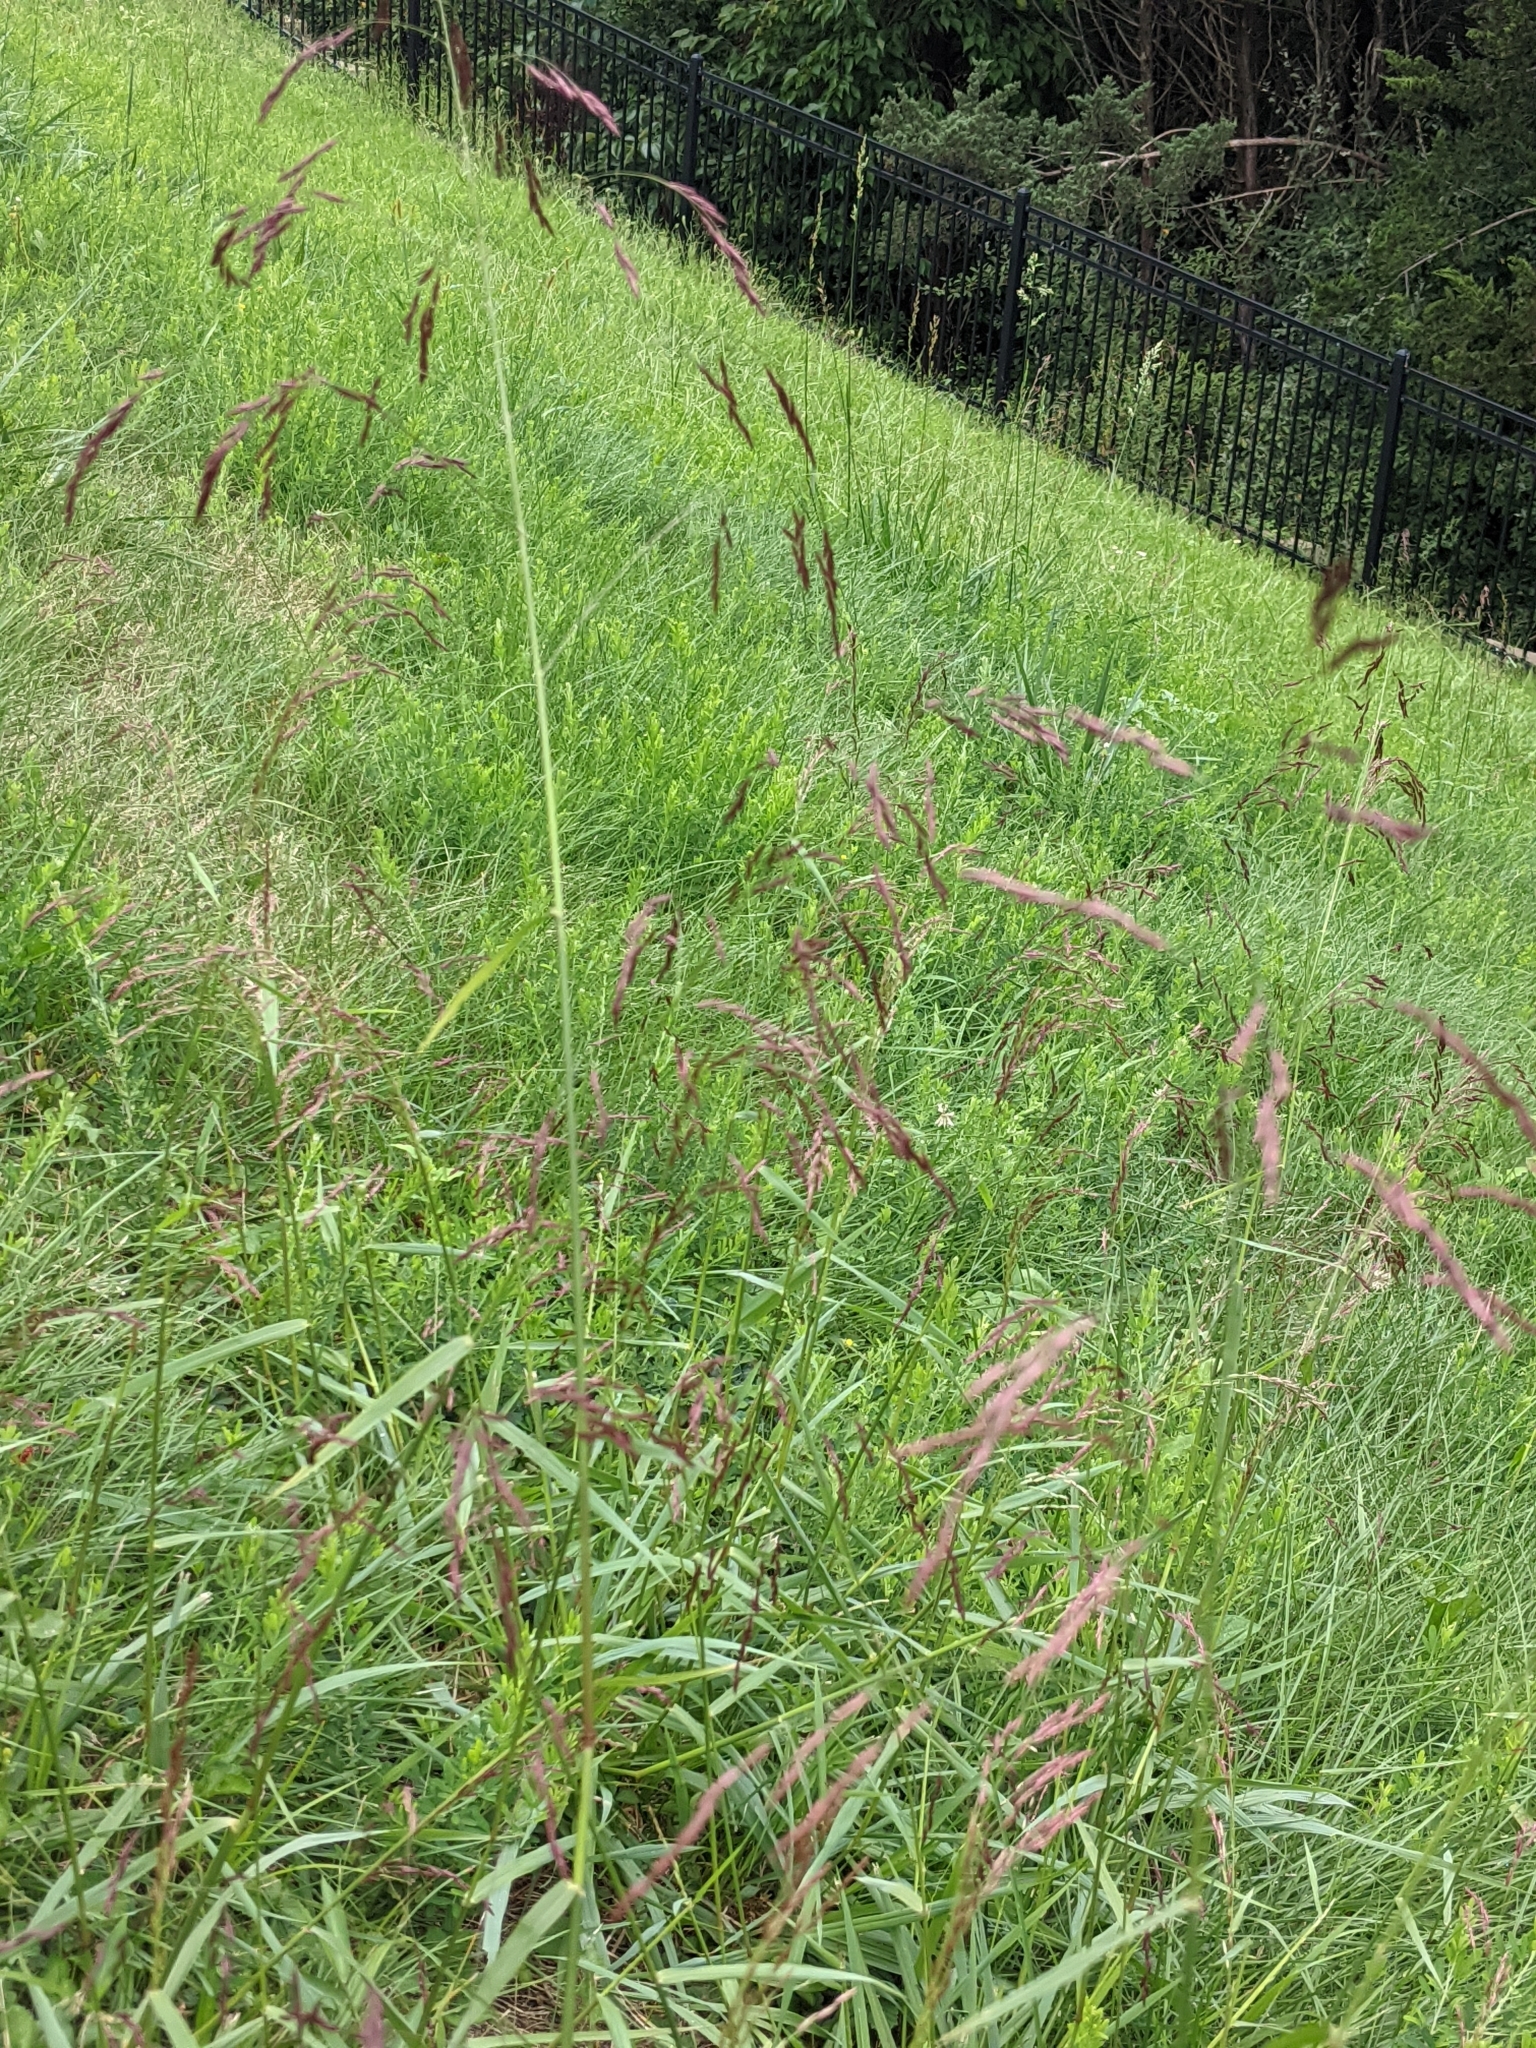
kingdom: Plantae
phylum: Tracheophyta
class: Liliopsida
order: Poales
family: Poaceae
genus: Tridens
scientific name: Tridens flavus
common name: Purpletop
